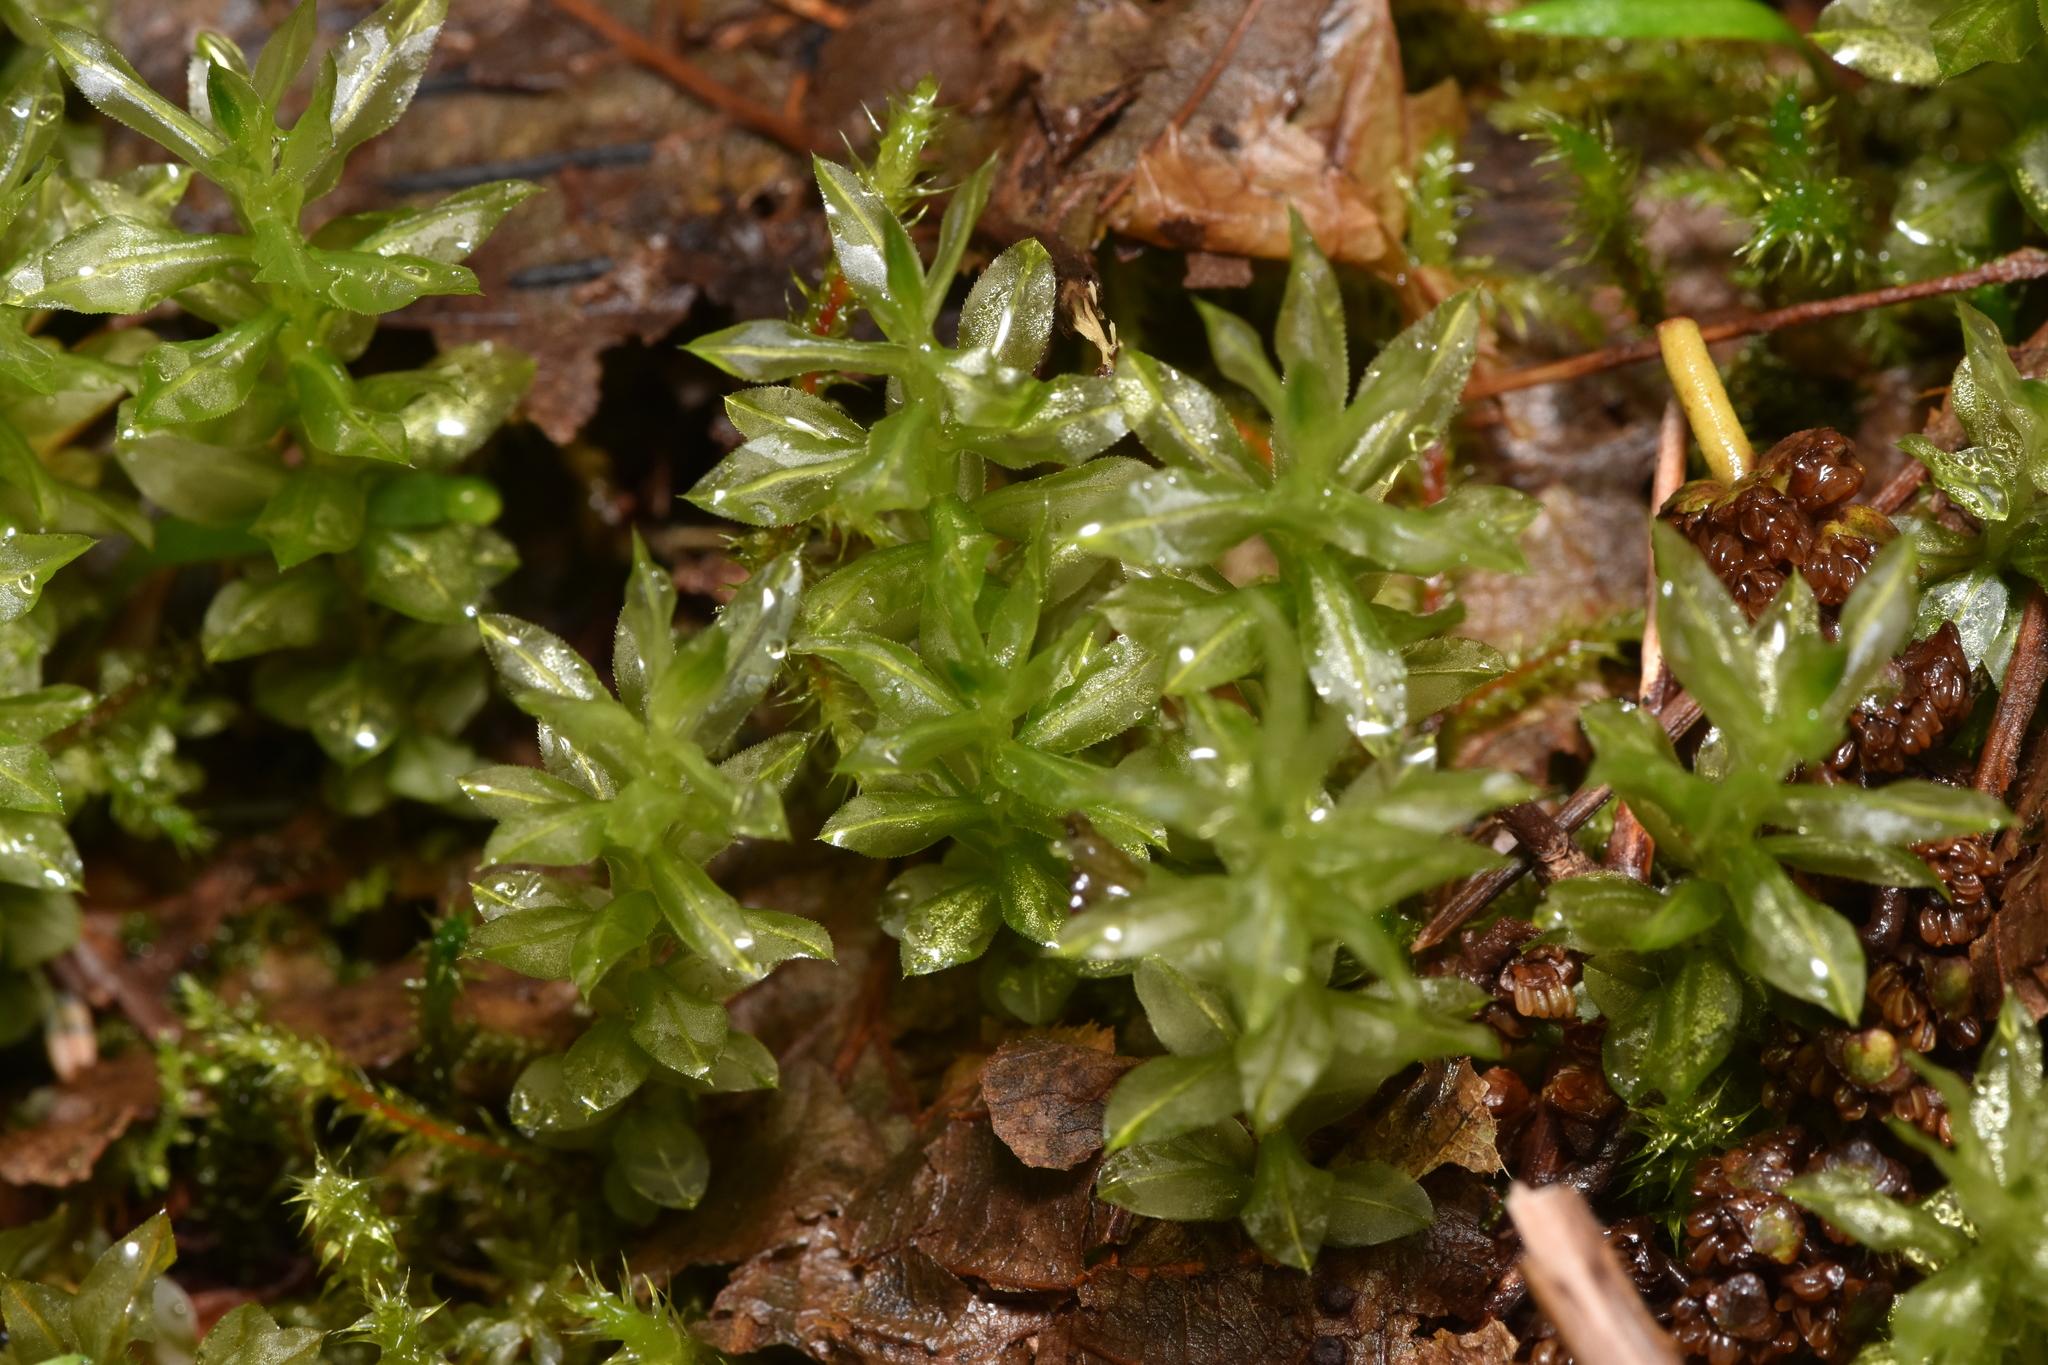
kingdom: Plantae
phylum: Bryophyta
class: Bryopsida
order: Bryales
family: Mniaceae
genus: Plagiomnium
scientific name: Plagiomnium insigne
